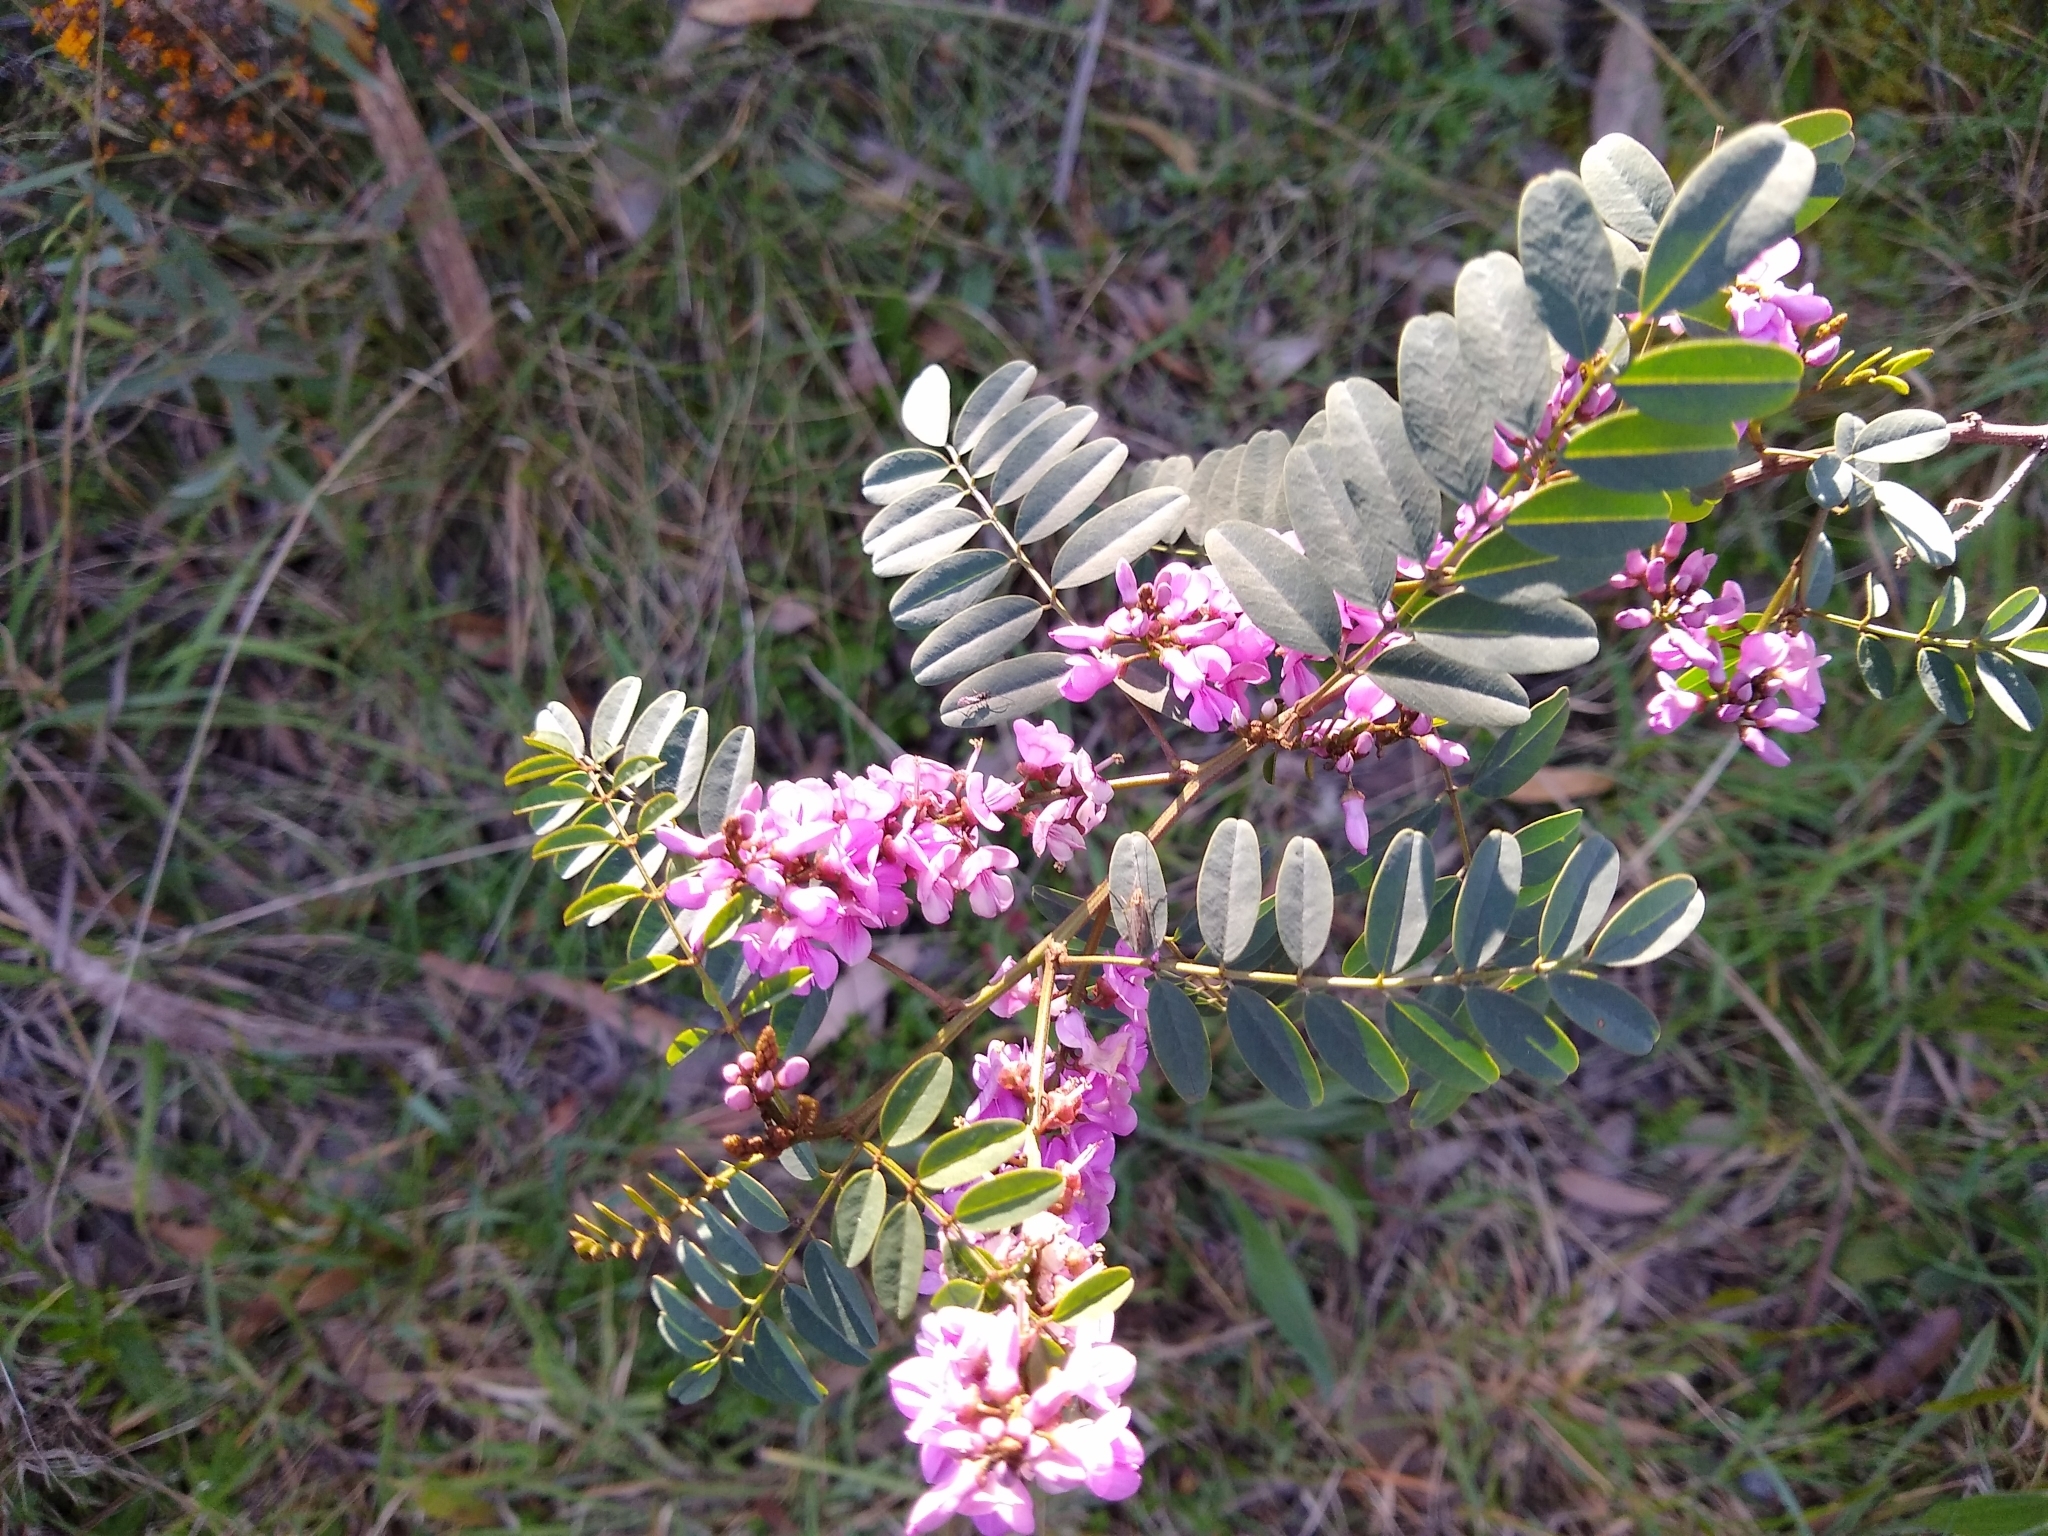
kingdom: Plantae
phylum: Tracheophyta
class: Magnoliopsida
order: Fabales
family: Fabaceae
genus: Indigofera
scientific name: Indigofera australis
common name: Australian indigo
